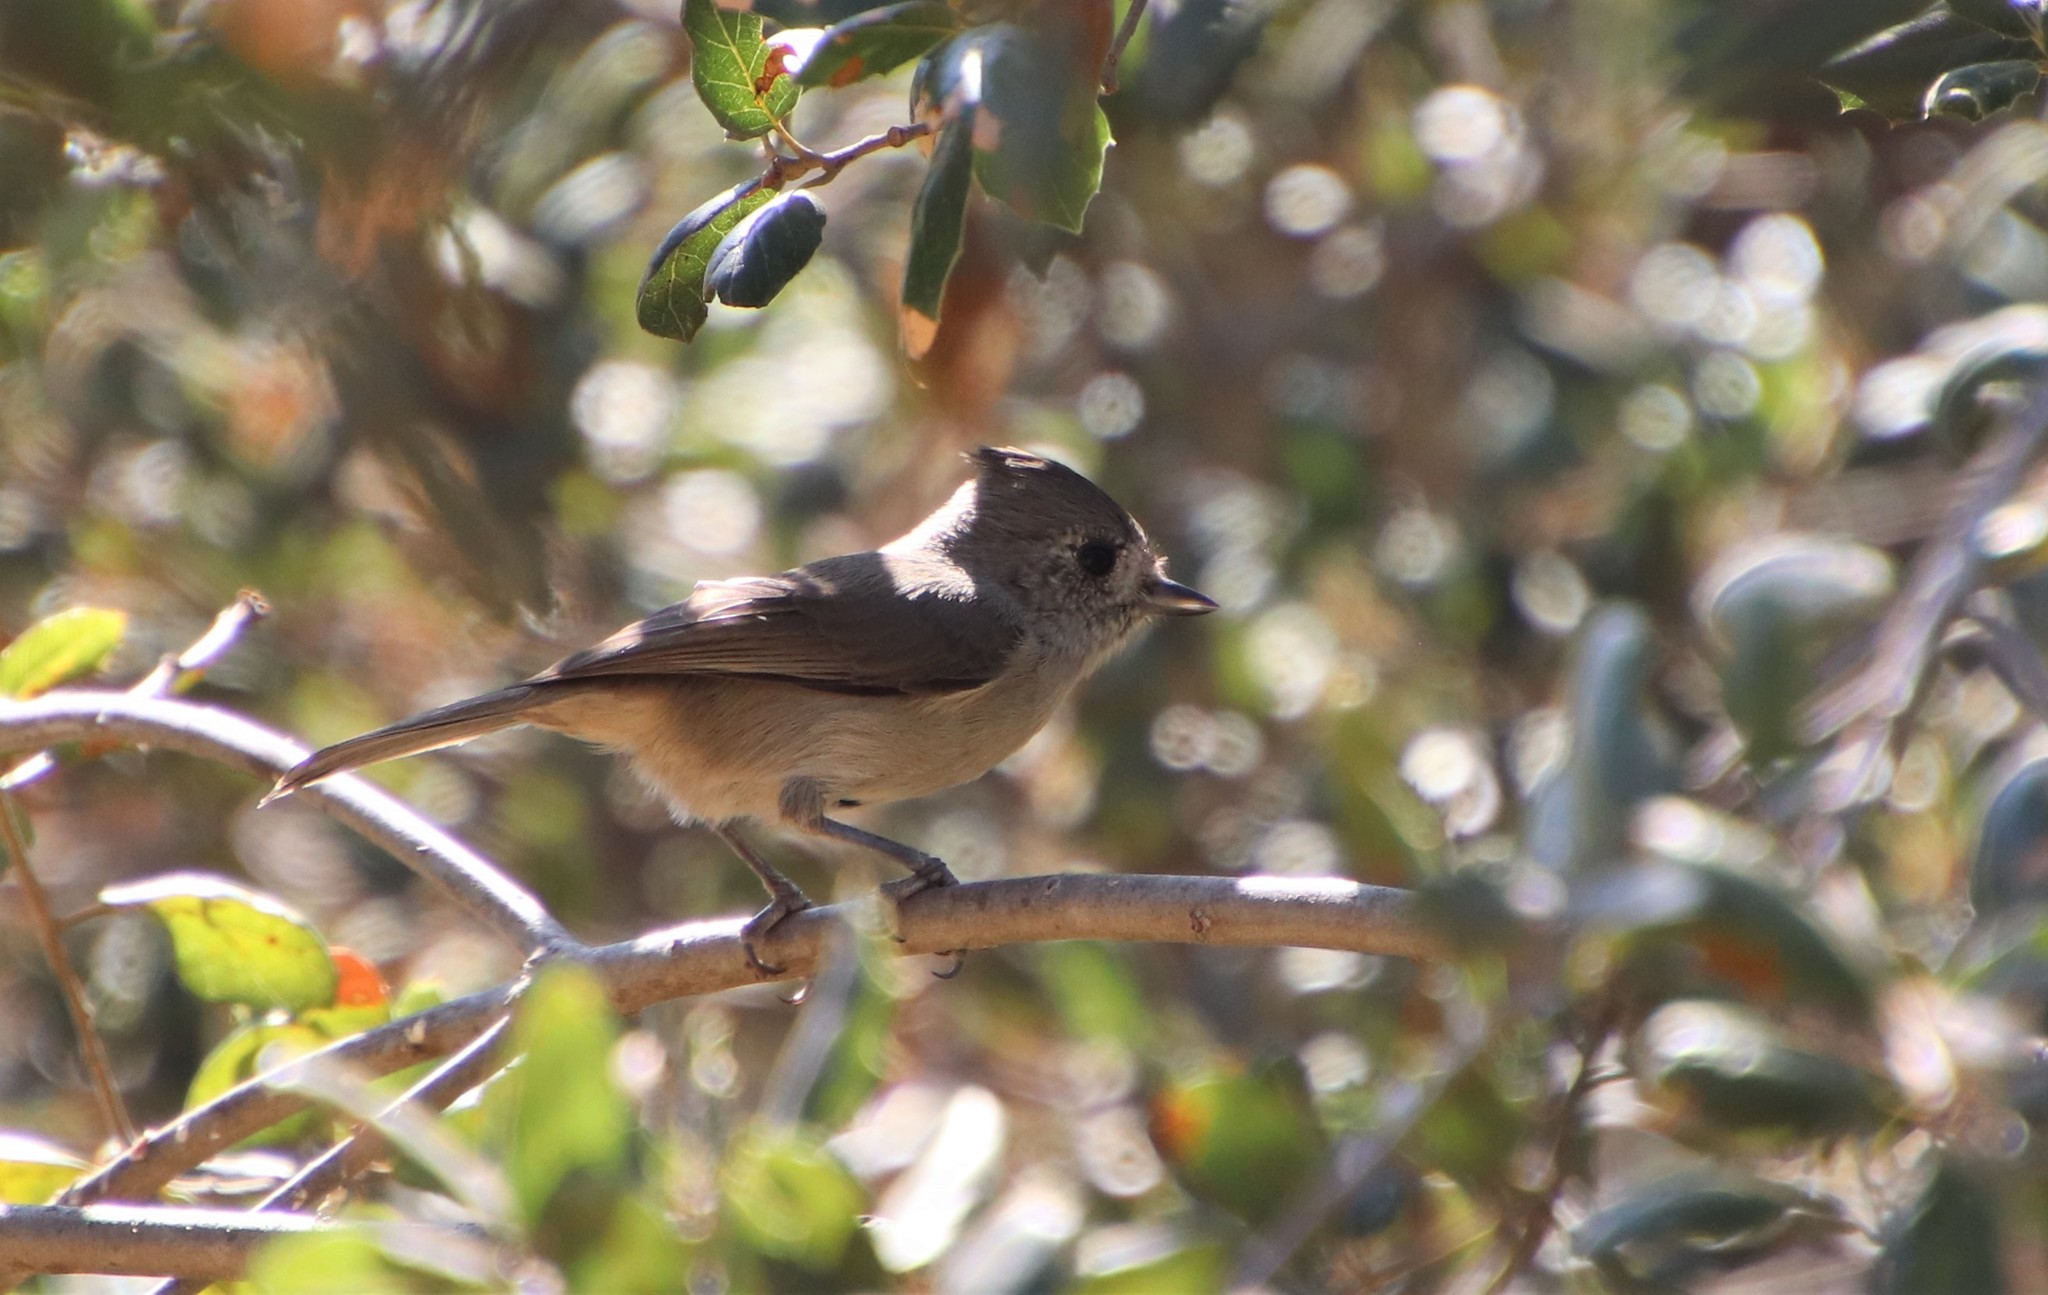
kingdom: Animalia
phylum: Chordata
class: Aves
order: Passeriformes
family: Paridae
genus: Baeolophus
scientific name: Baeolophus inornatus
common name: Oak titmouse
